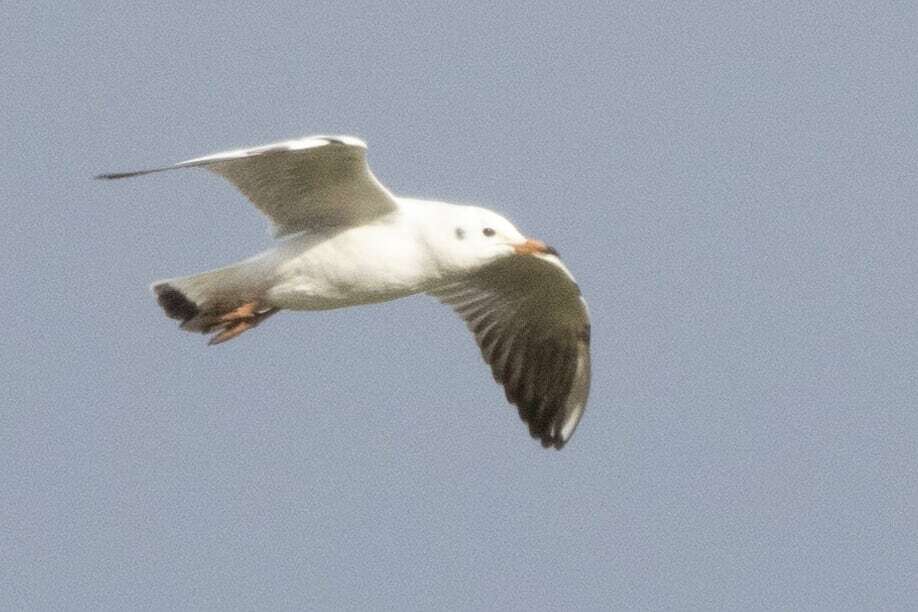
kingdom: Animalia
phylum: Chordata
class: Aves
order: Charadriiformes
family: Laridae
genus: Chroicocephalus
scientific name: Chroicocephalus ridibundus
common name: Black-headed gull
